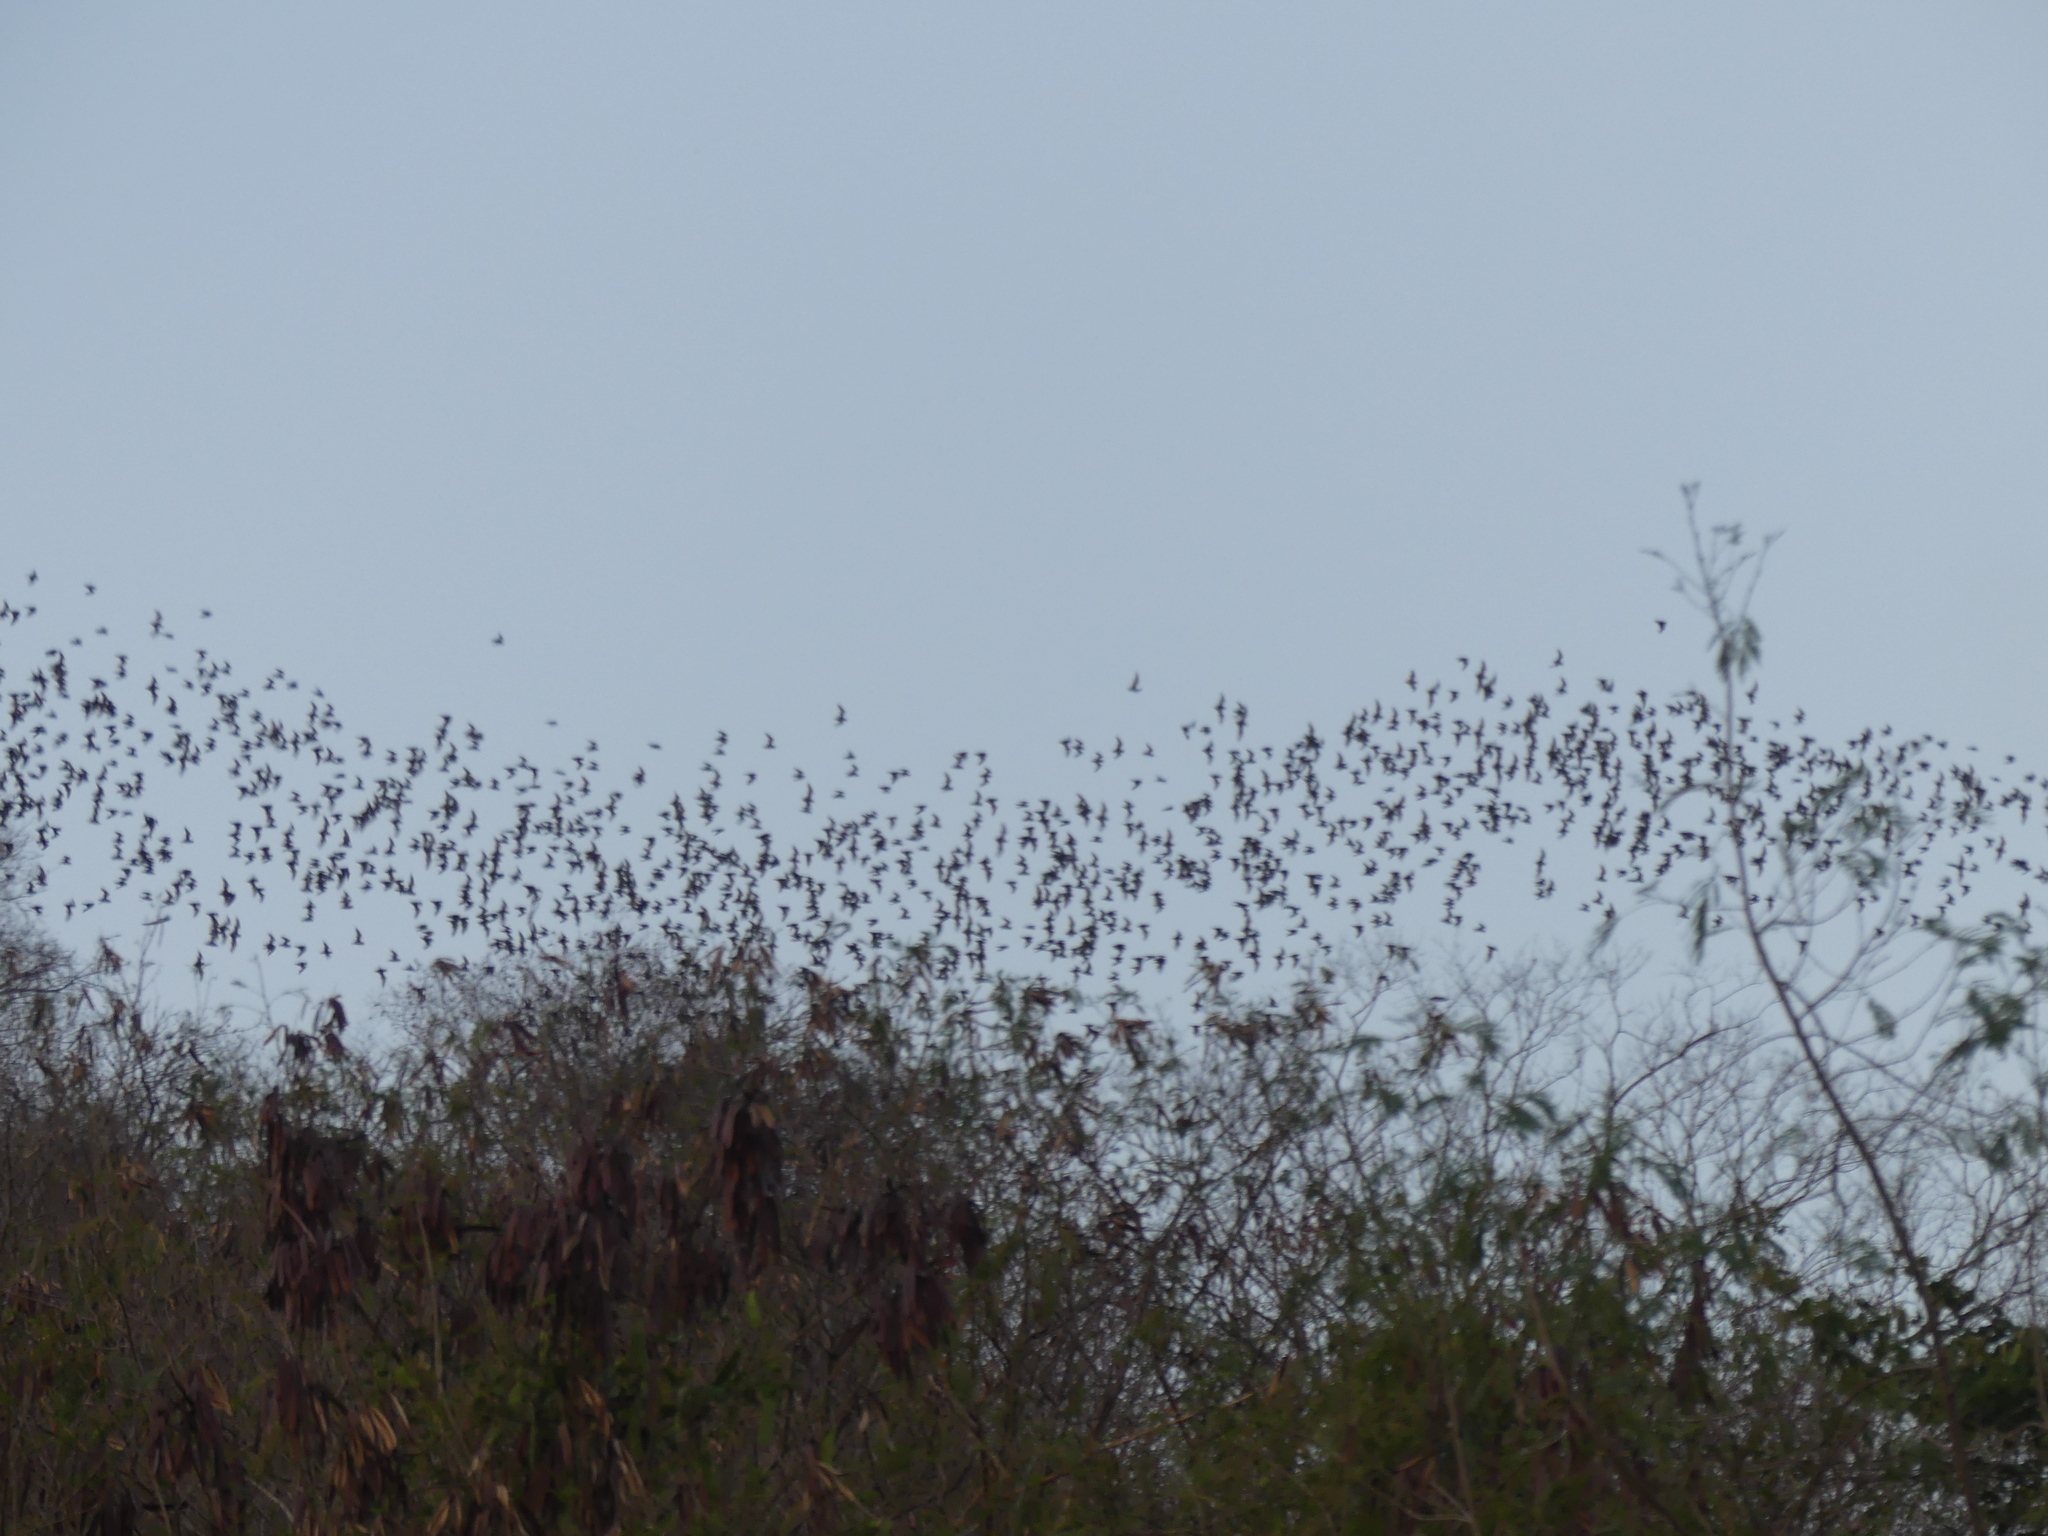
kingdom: Animalia
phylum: Chordata
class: Mammalia
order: Chiroptera
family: Molossidae
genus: Mops
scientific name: Mops
